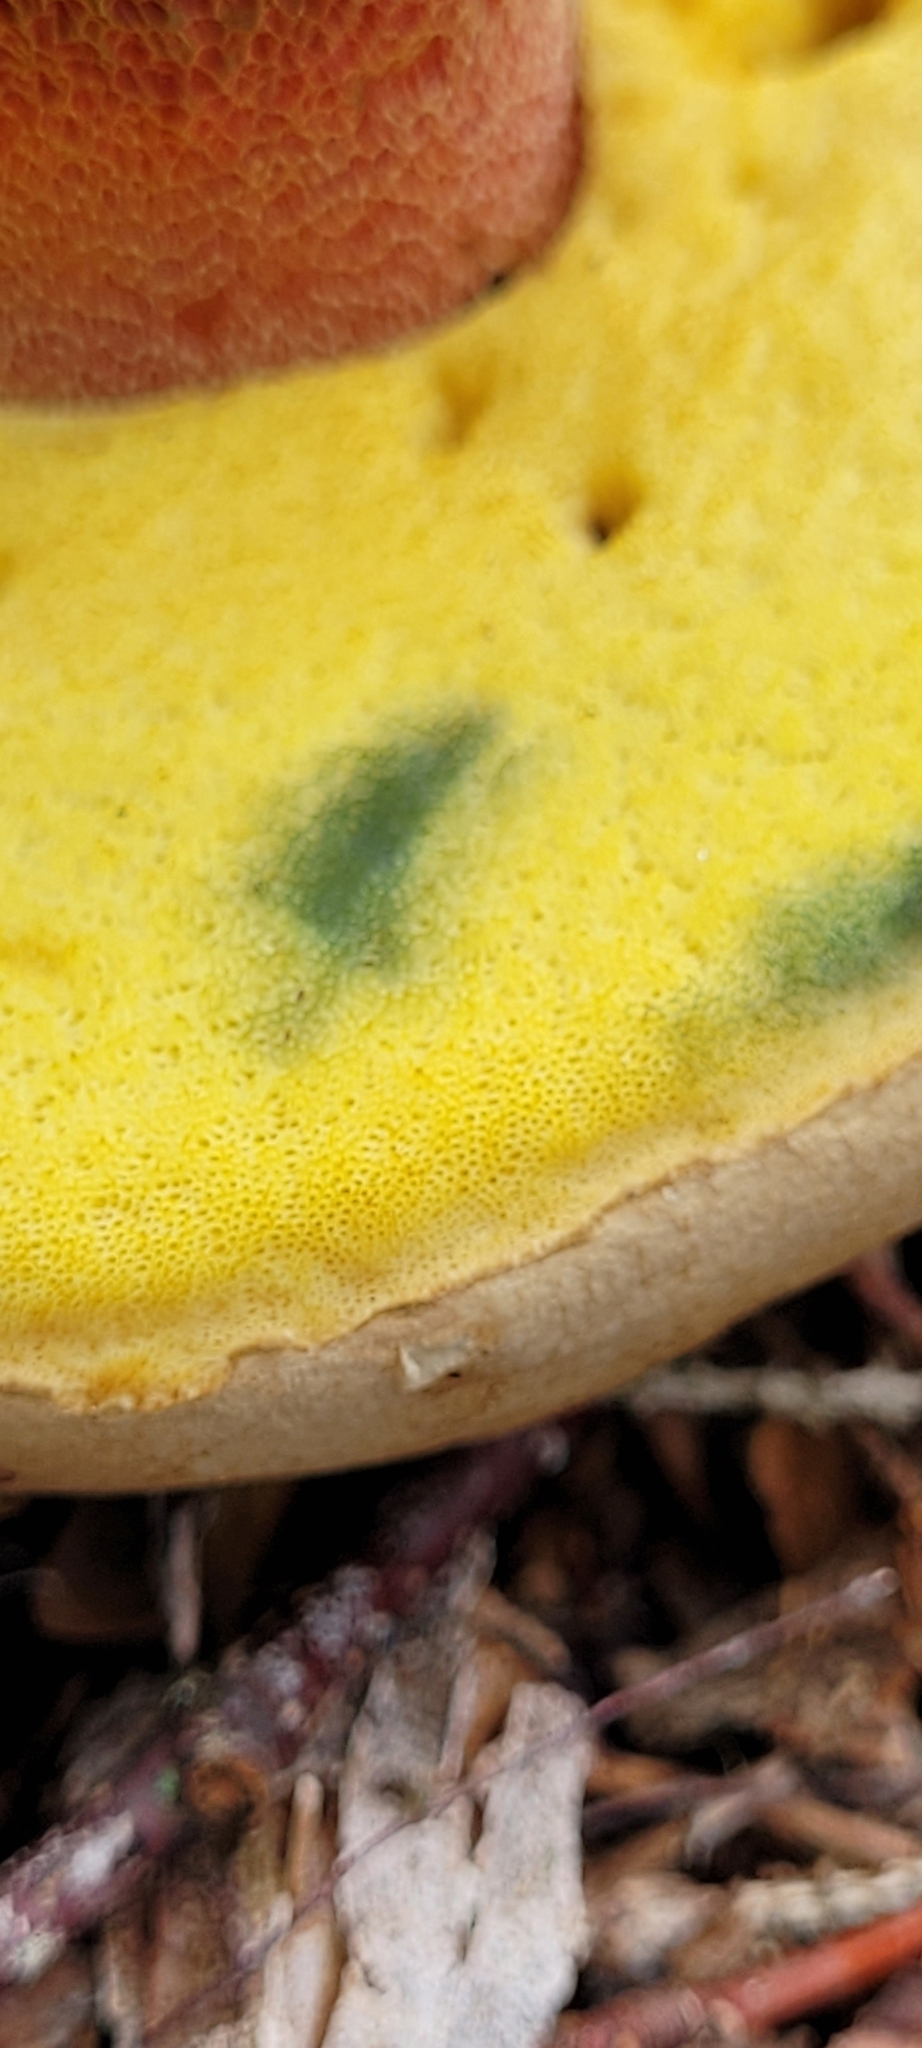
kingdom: Fungi
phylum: Basidiomycota
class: Agaricomycetes
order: Boletales
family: Boletaceae
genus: Caloboletus
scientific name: Caloboletus calopus
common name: Bitter beech bolete
